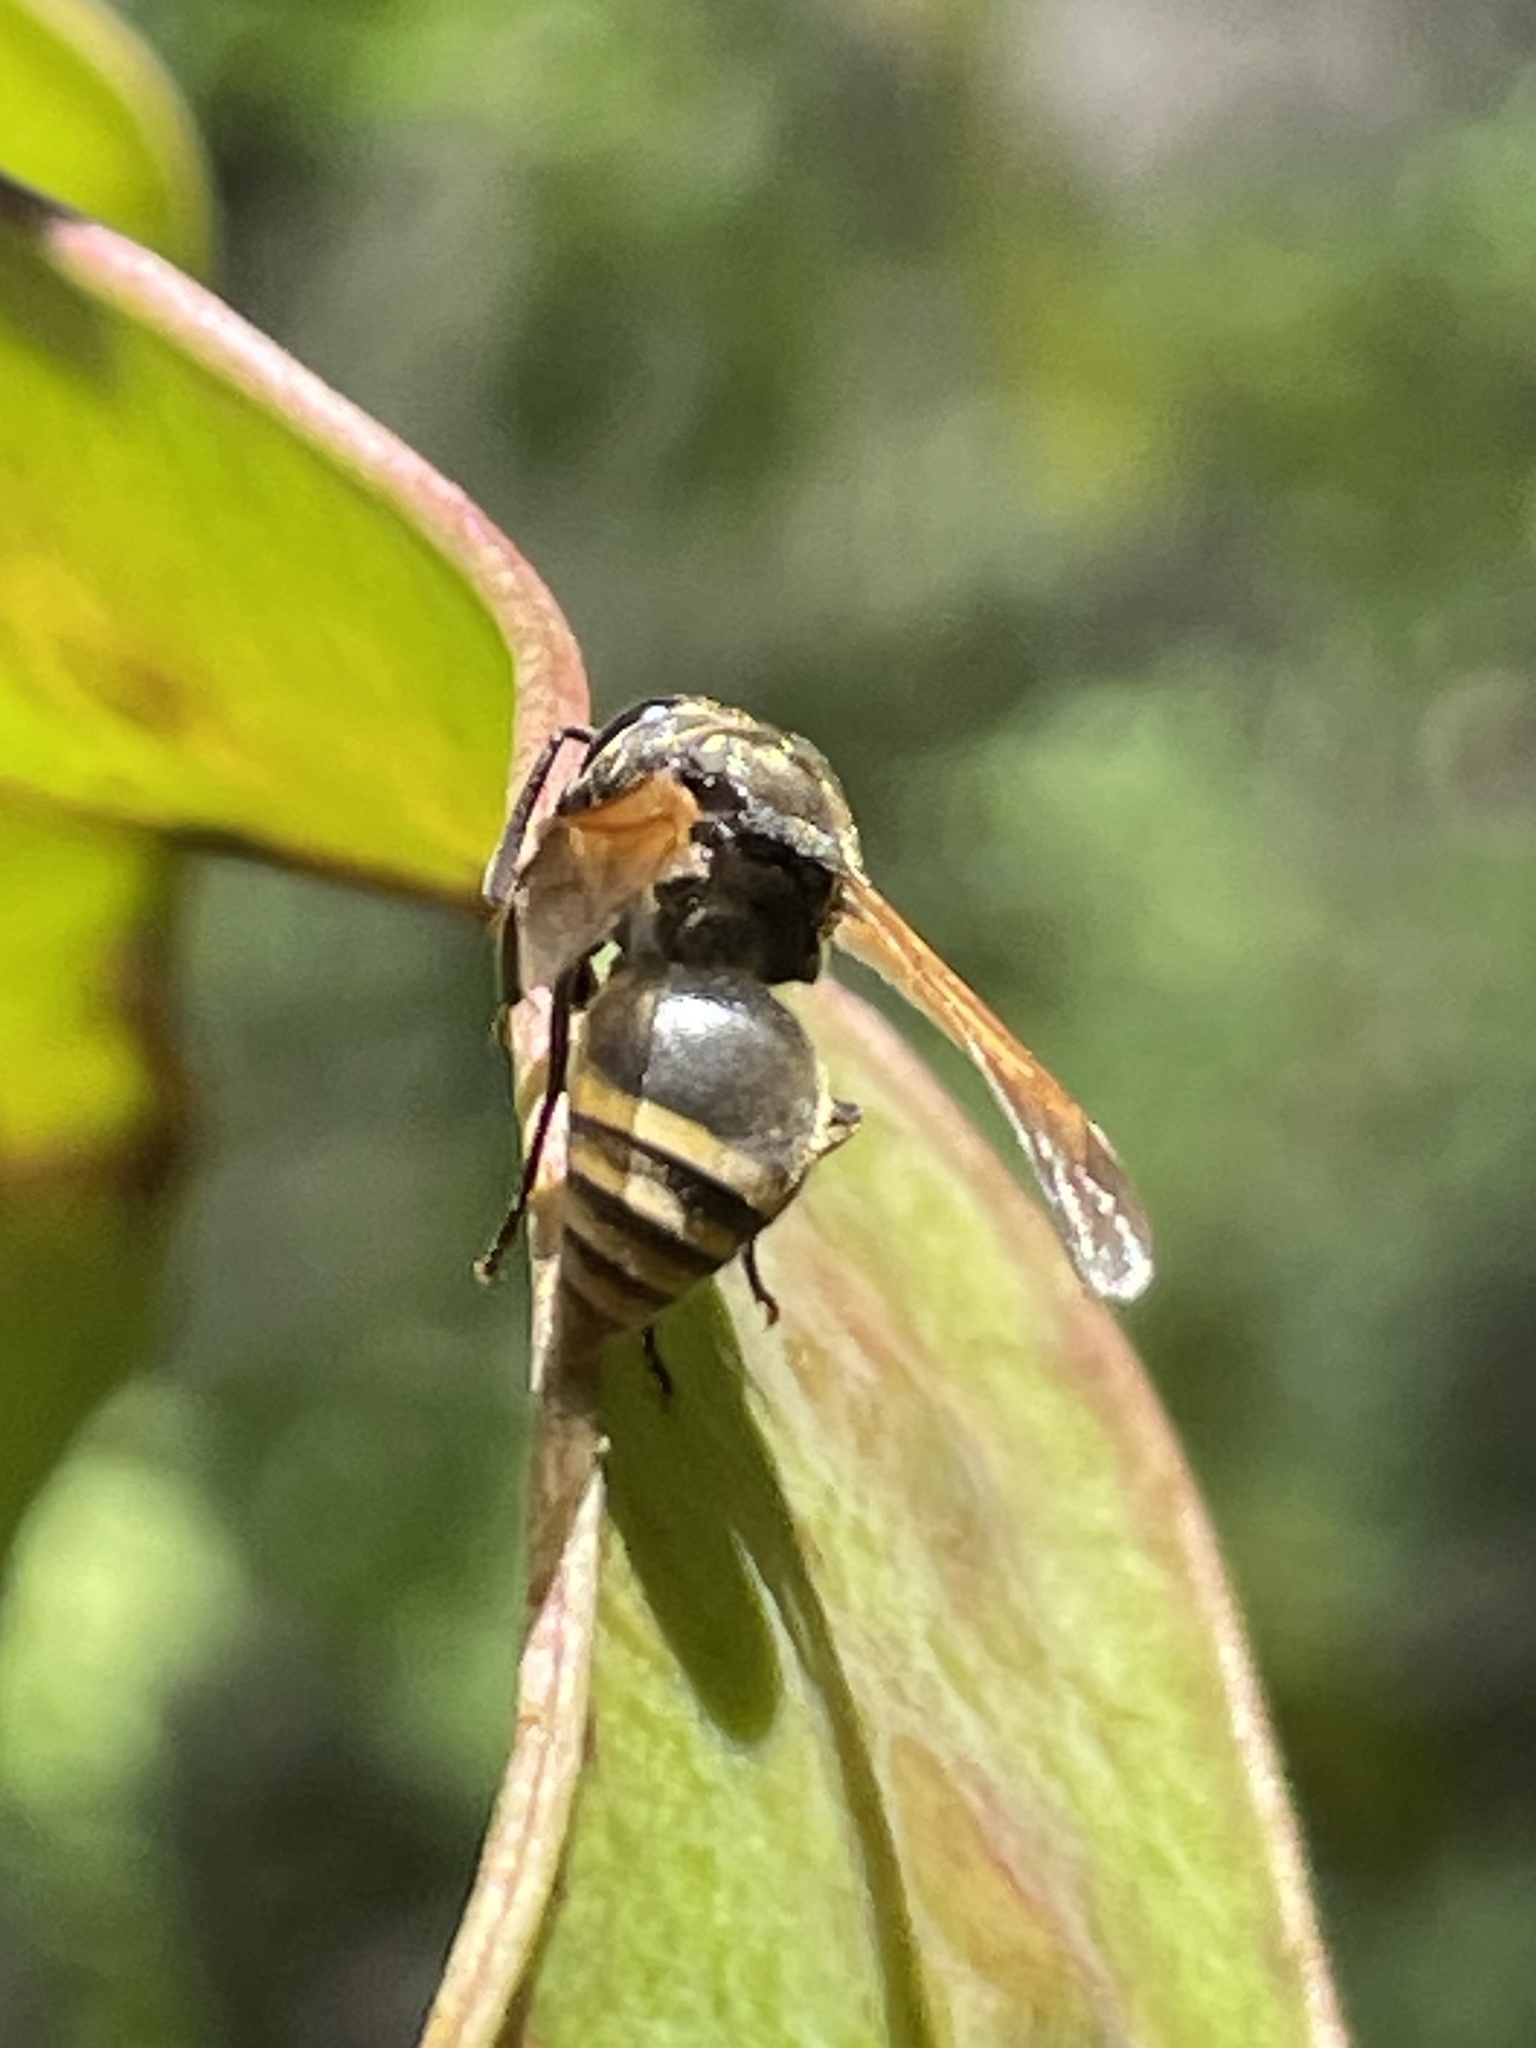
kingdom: Animalia
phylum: Arthropoda
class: Insecta
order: Hymenoptera
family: Vespidae
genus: Brachygastra
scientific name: Brachygastra mellifica
